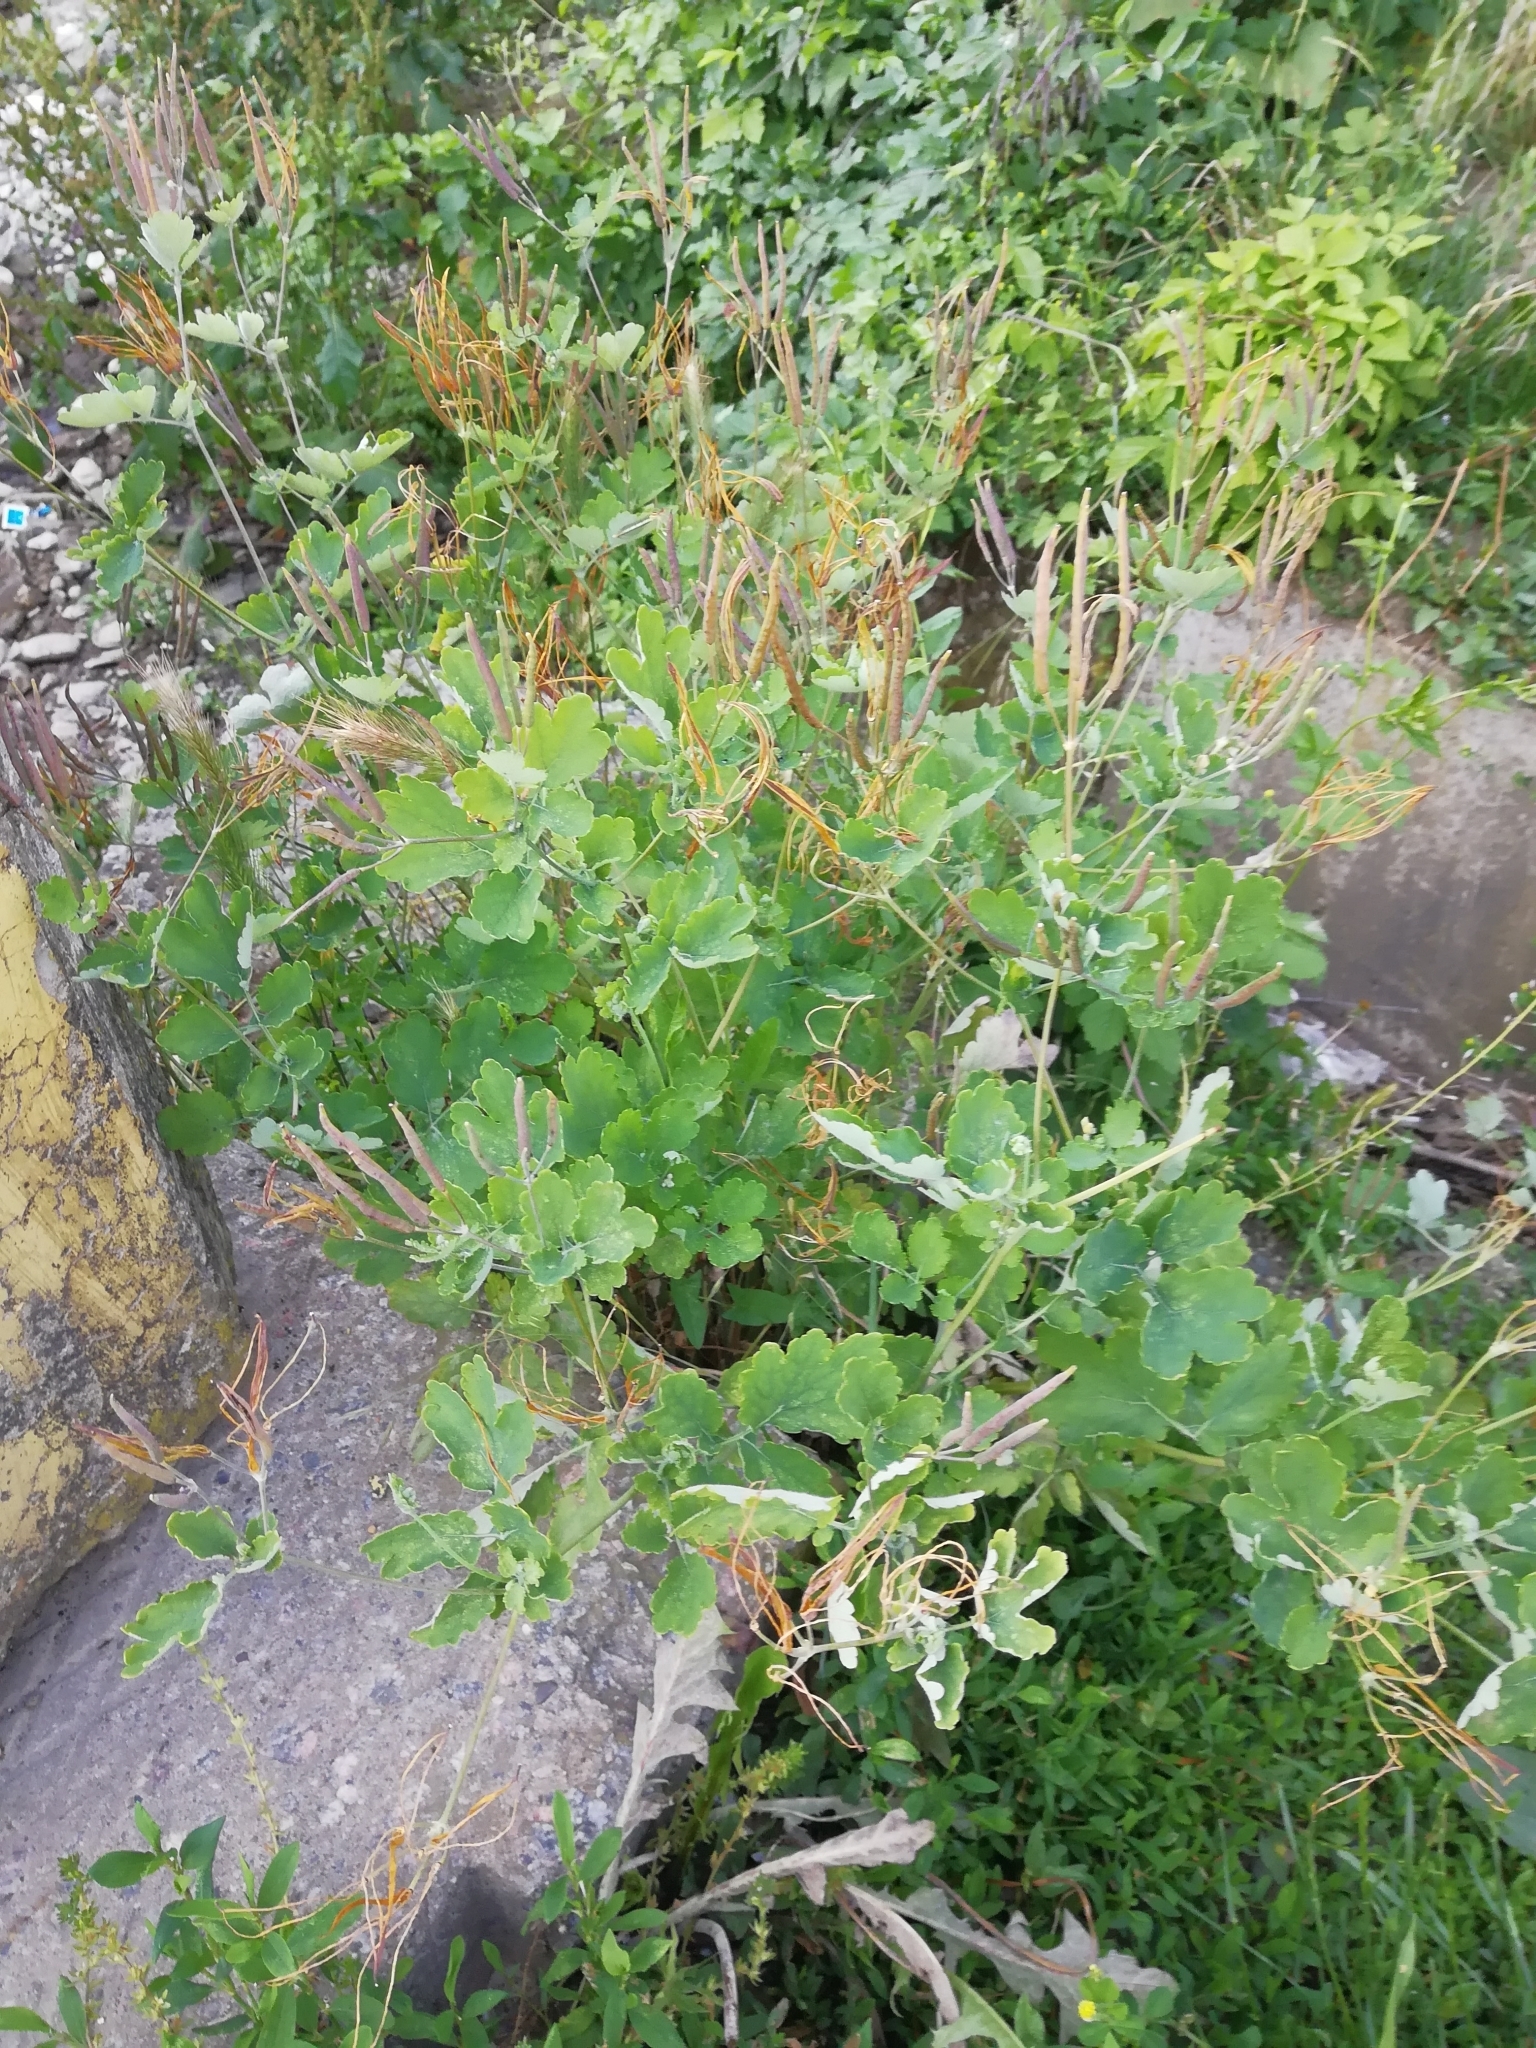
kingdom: Plantae
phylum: Tracheophyta
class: Magnoliopsida
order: Ranunculales
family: Papaveraceae
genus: Chelidonium
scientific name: Chelidonium majus
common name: Greater celandine
